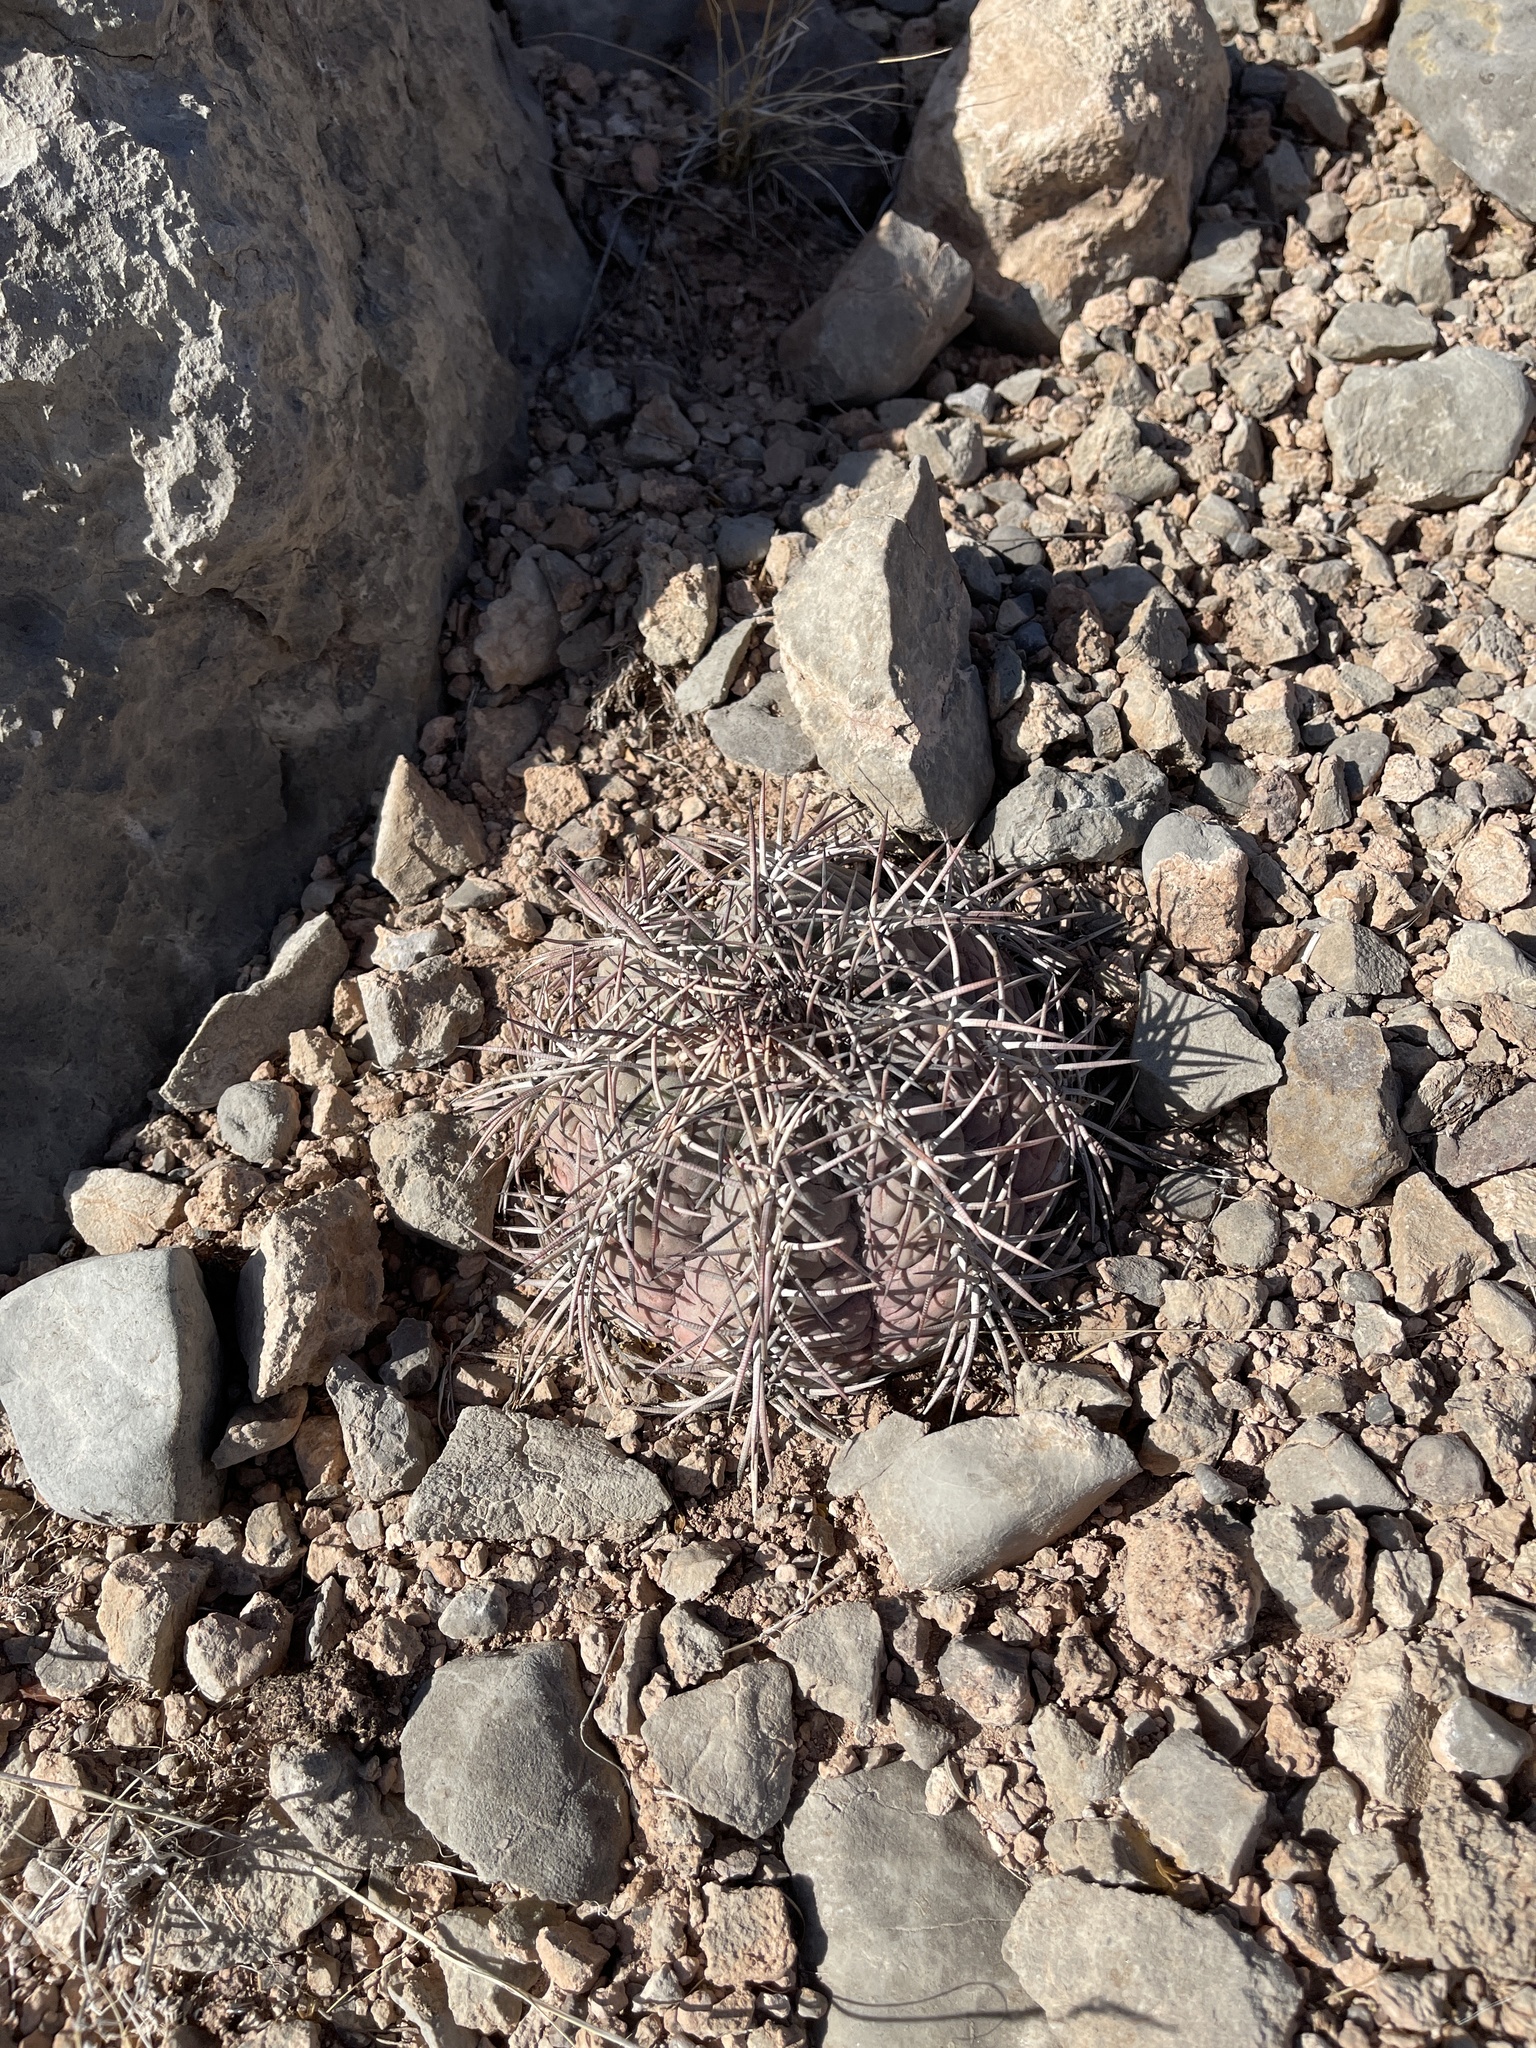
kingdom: Plantae
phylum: Tracheophyta
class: Magnoliopsida
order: Caryophyllales
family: Cactaceae
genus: Echinocactus
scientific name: Echinocactus horizonthalonius
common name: Devilshead
